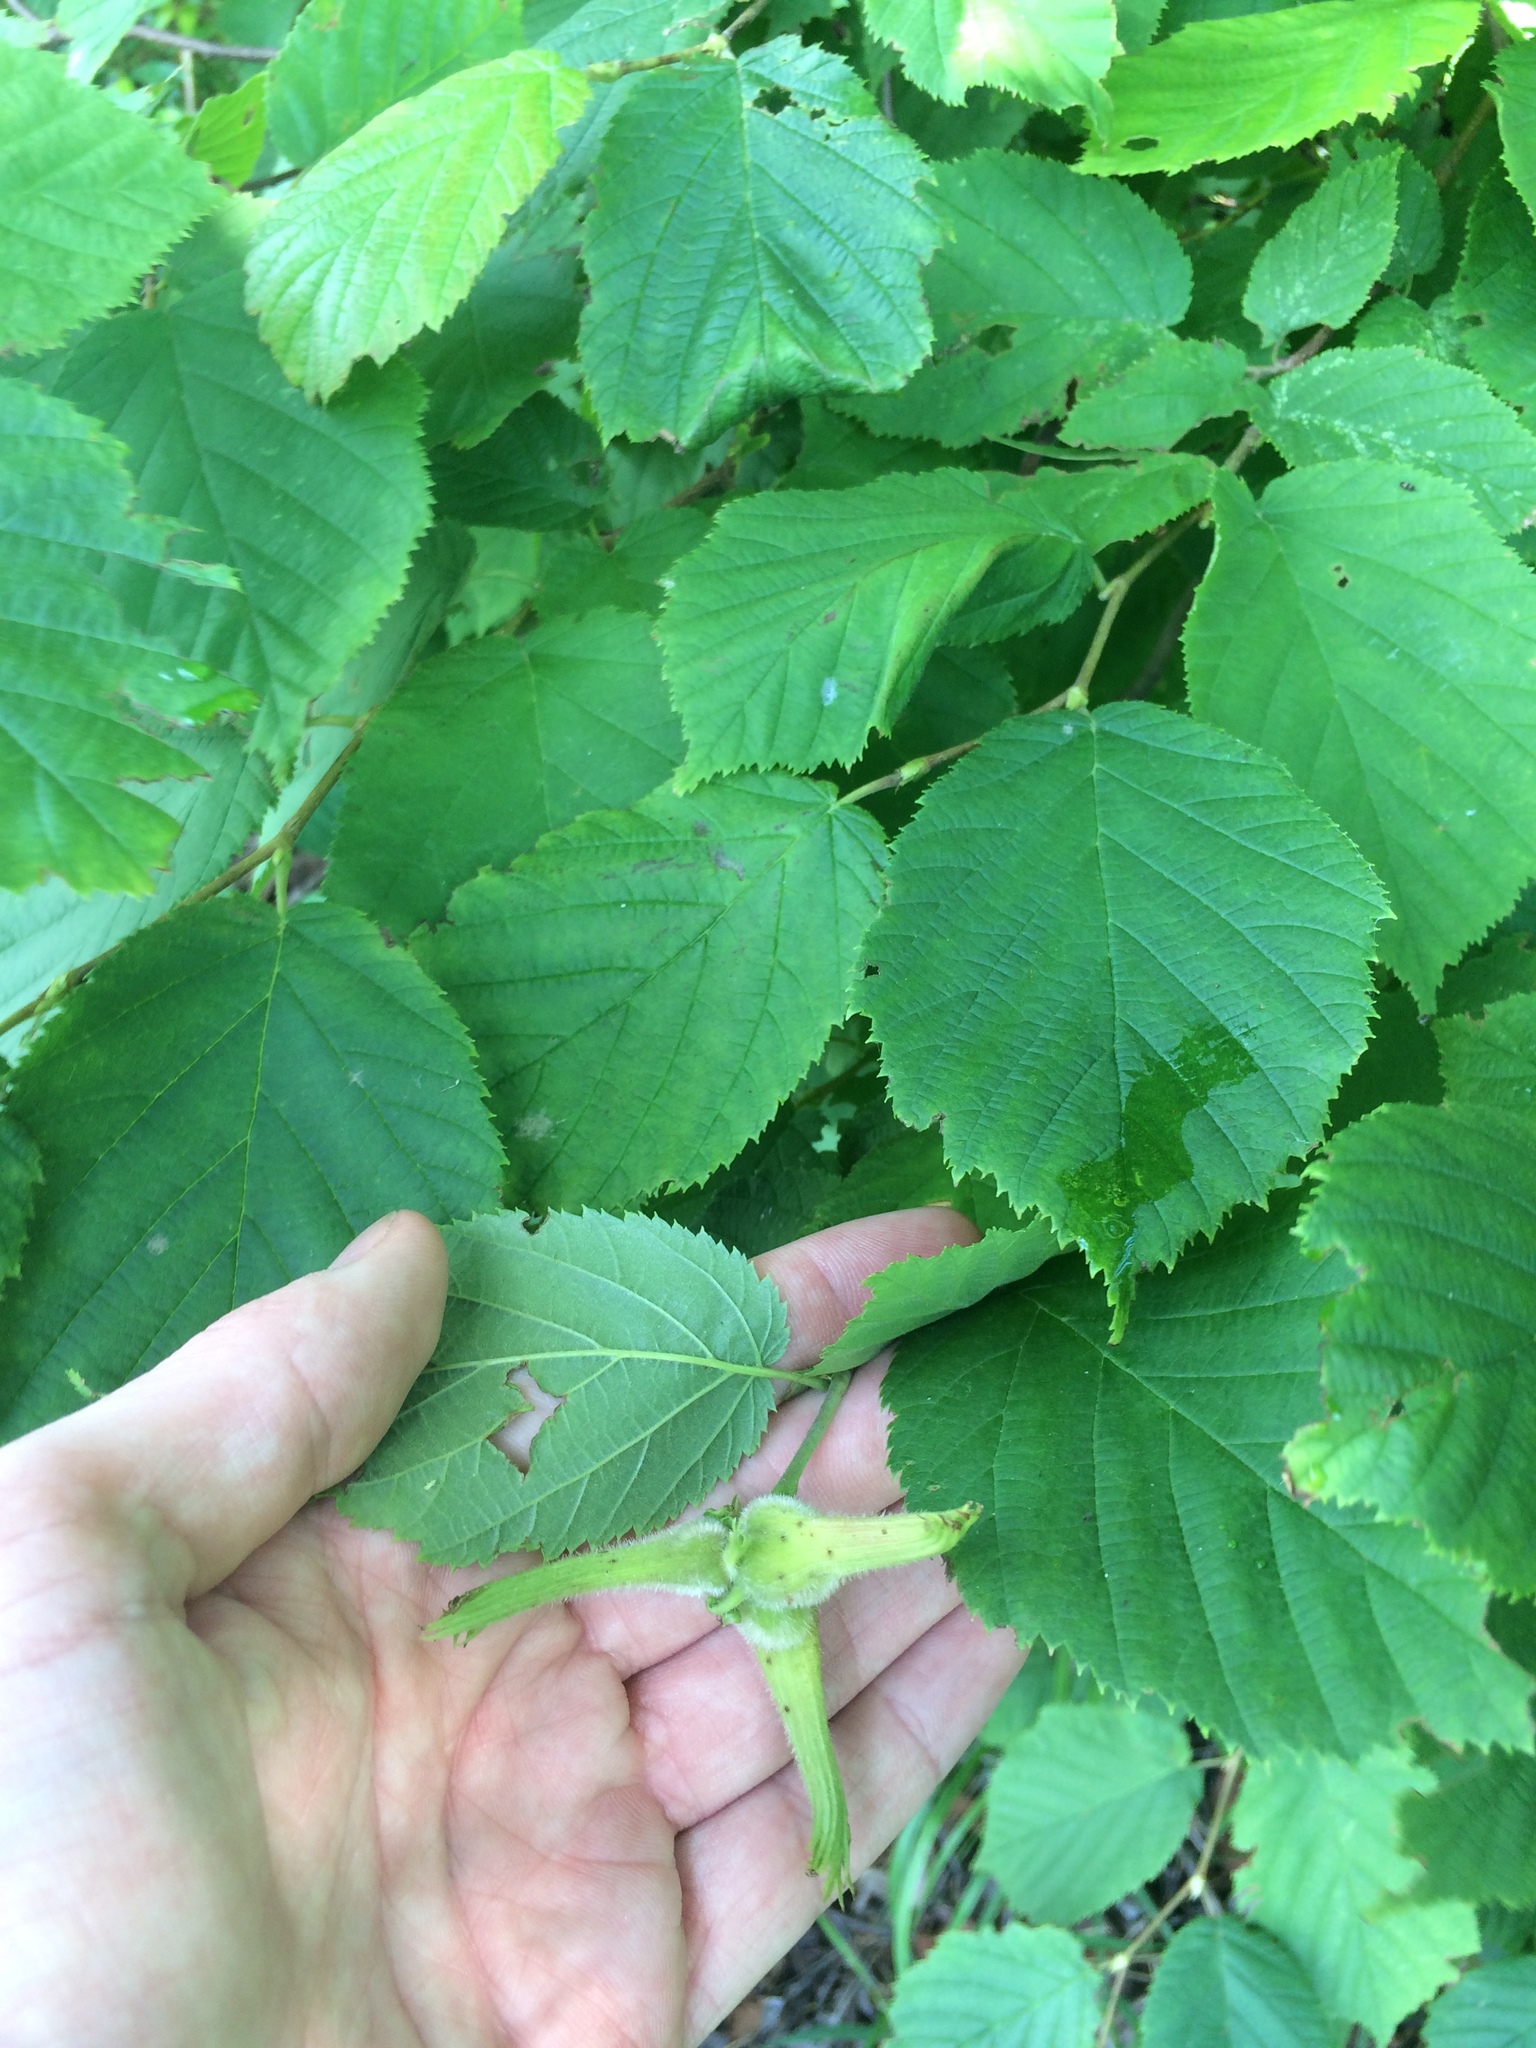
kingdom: Plantae
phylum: Tracheophyta
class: Magnoliopsida
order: Fagales
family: Betulaceae
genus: Corylus
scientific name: Corylus cornuta
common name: Beaked hazel
